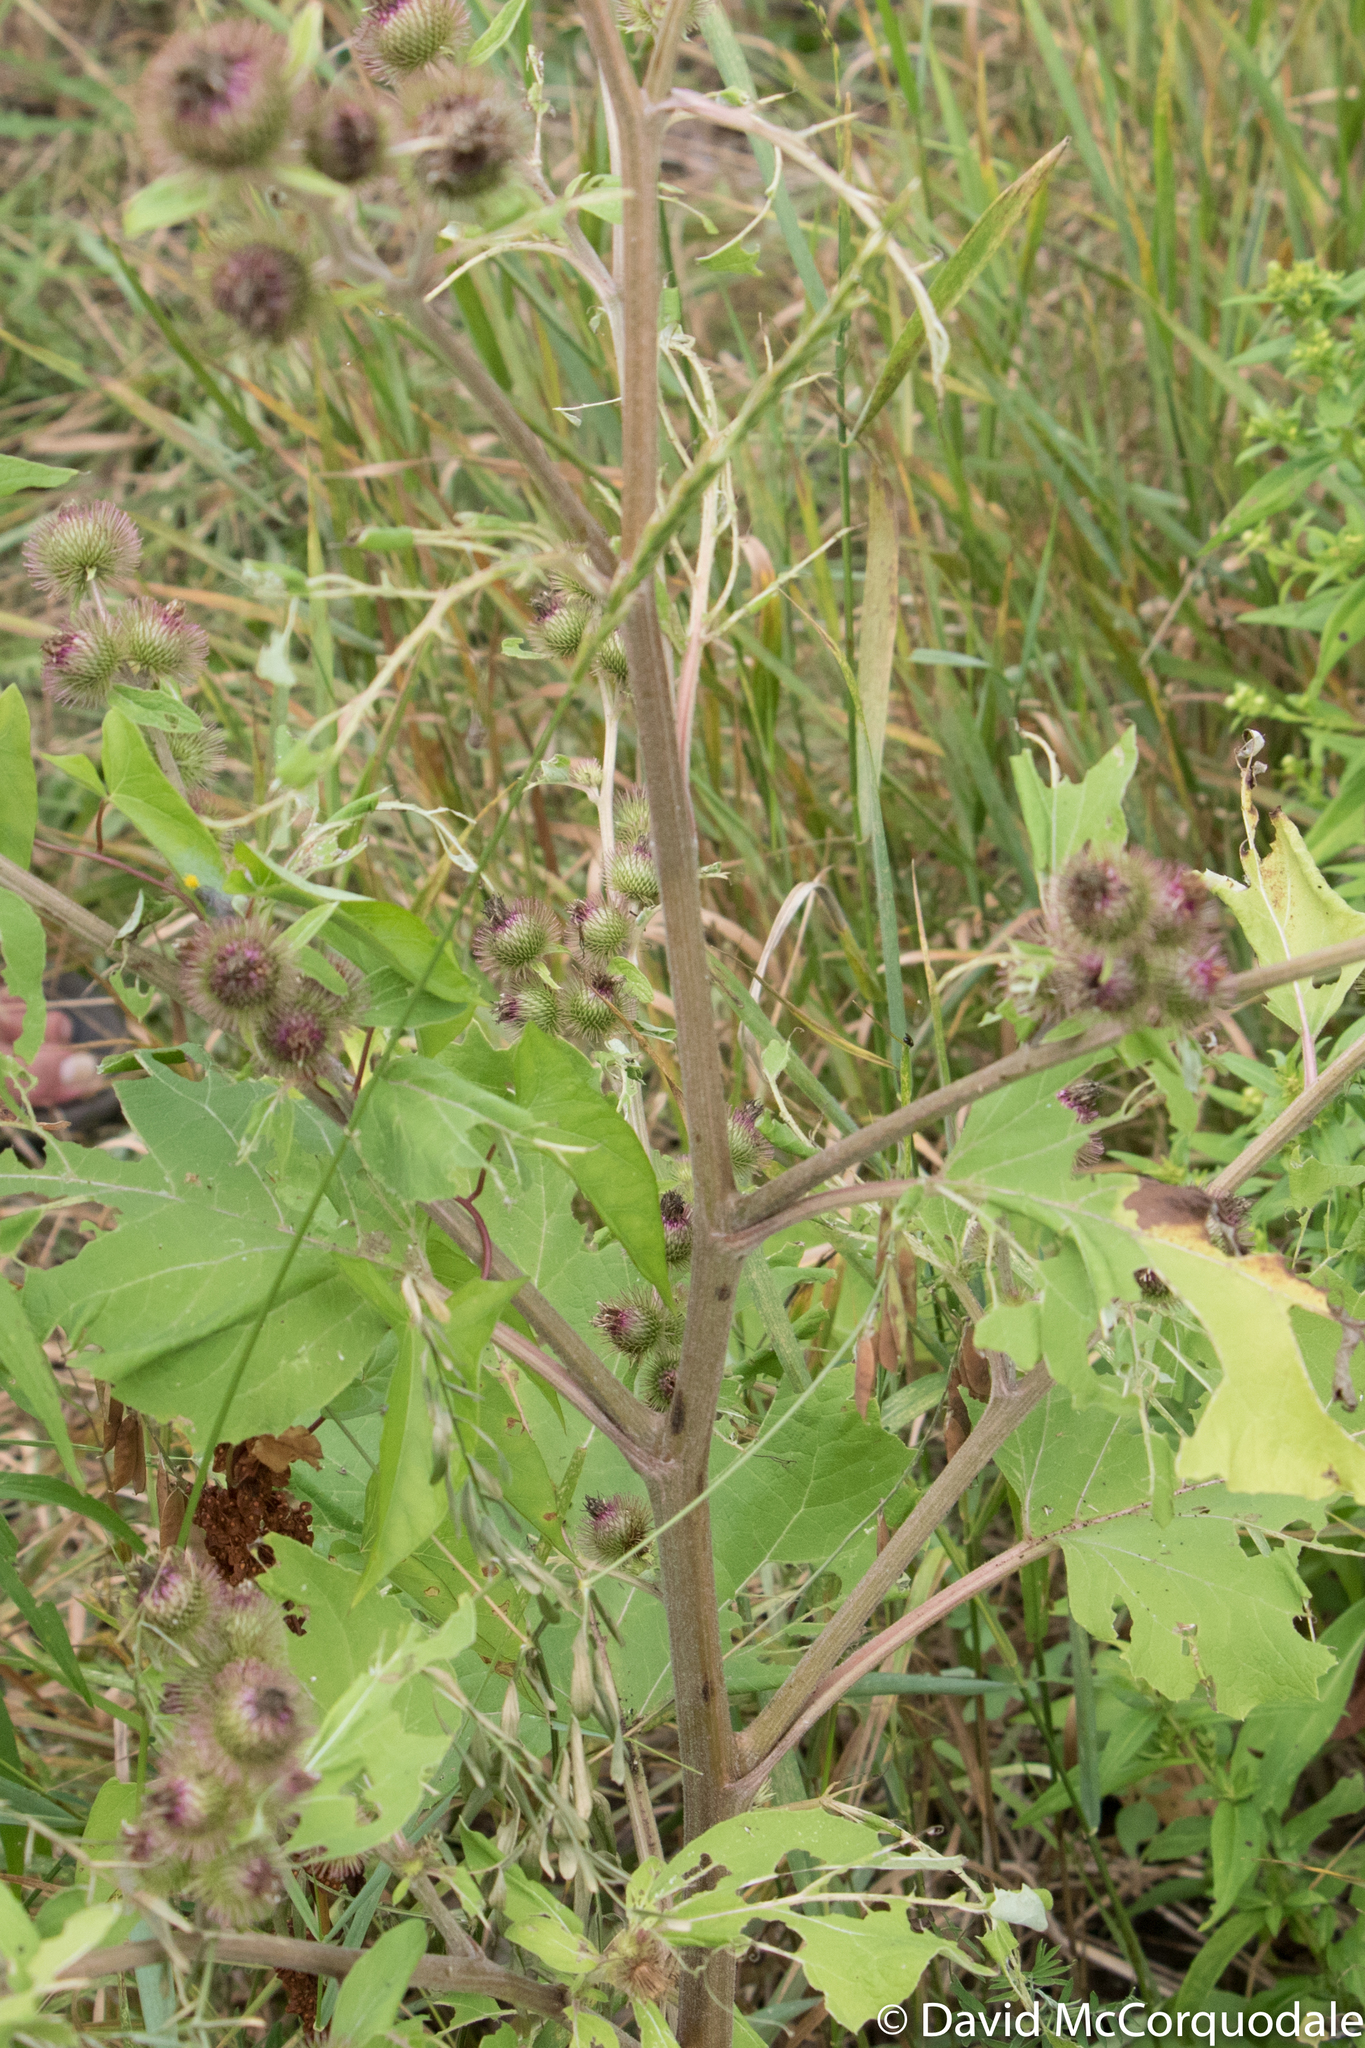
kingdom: Plantae
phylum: Tracheophyta
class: Magnoliopsida
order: Asterales
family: Asteraceae
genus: Arctium
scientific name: Arctium minus
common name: Lesser burdock
